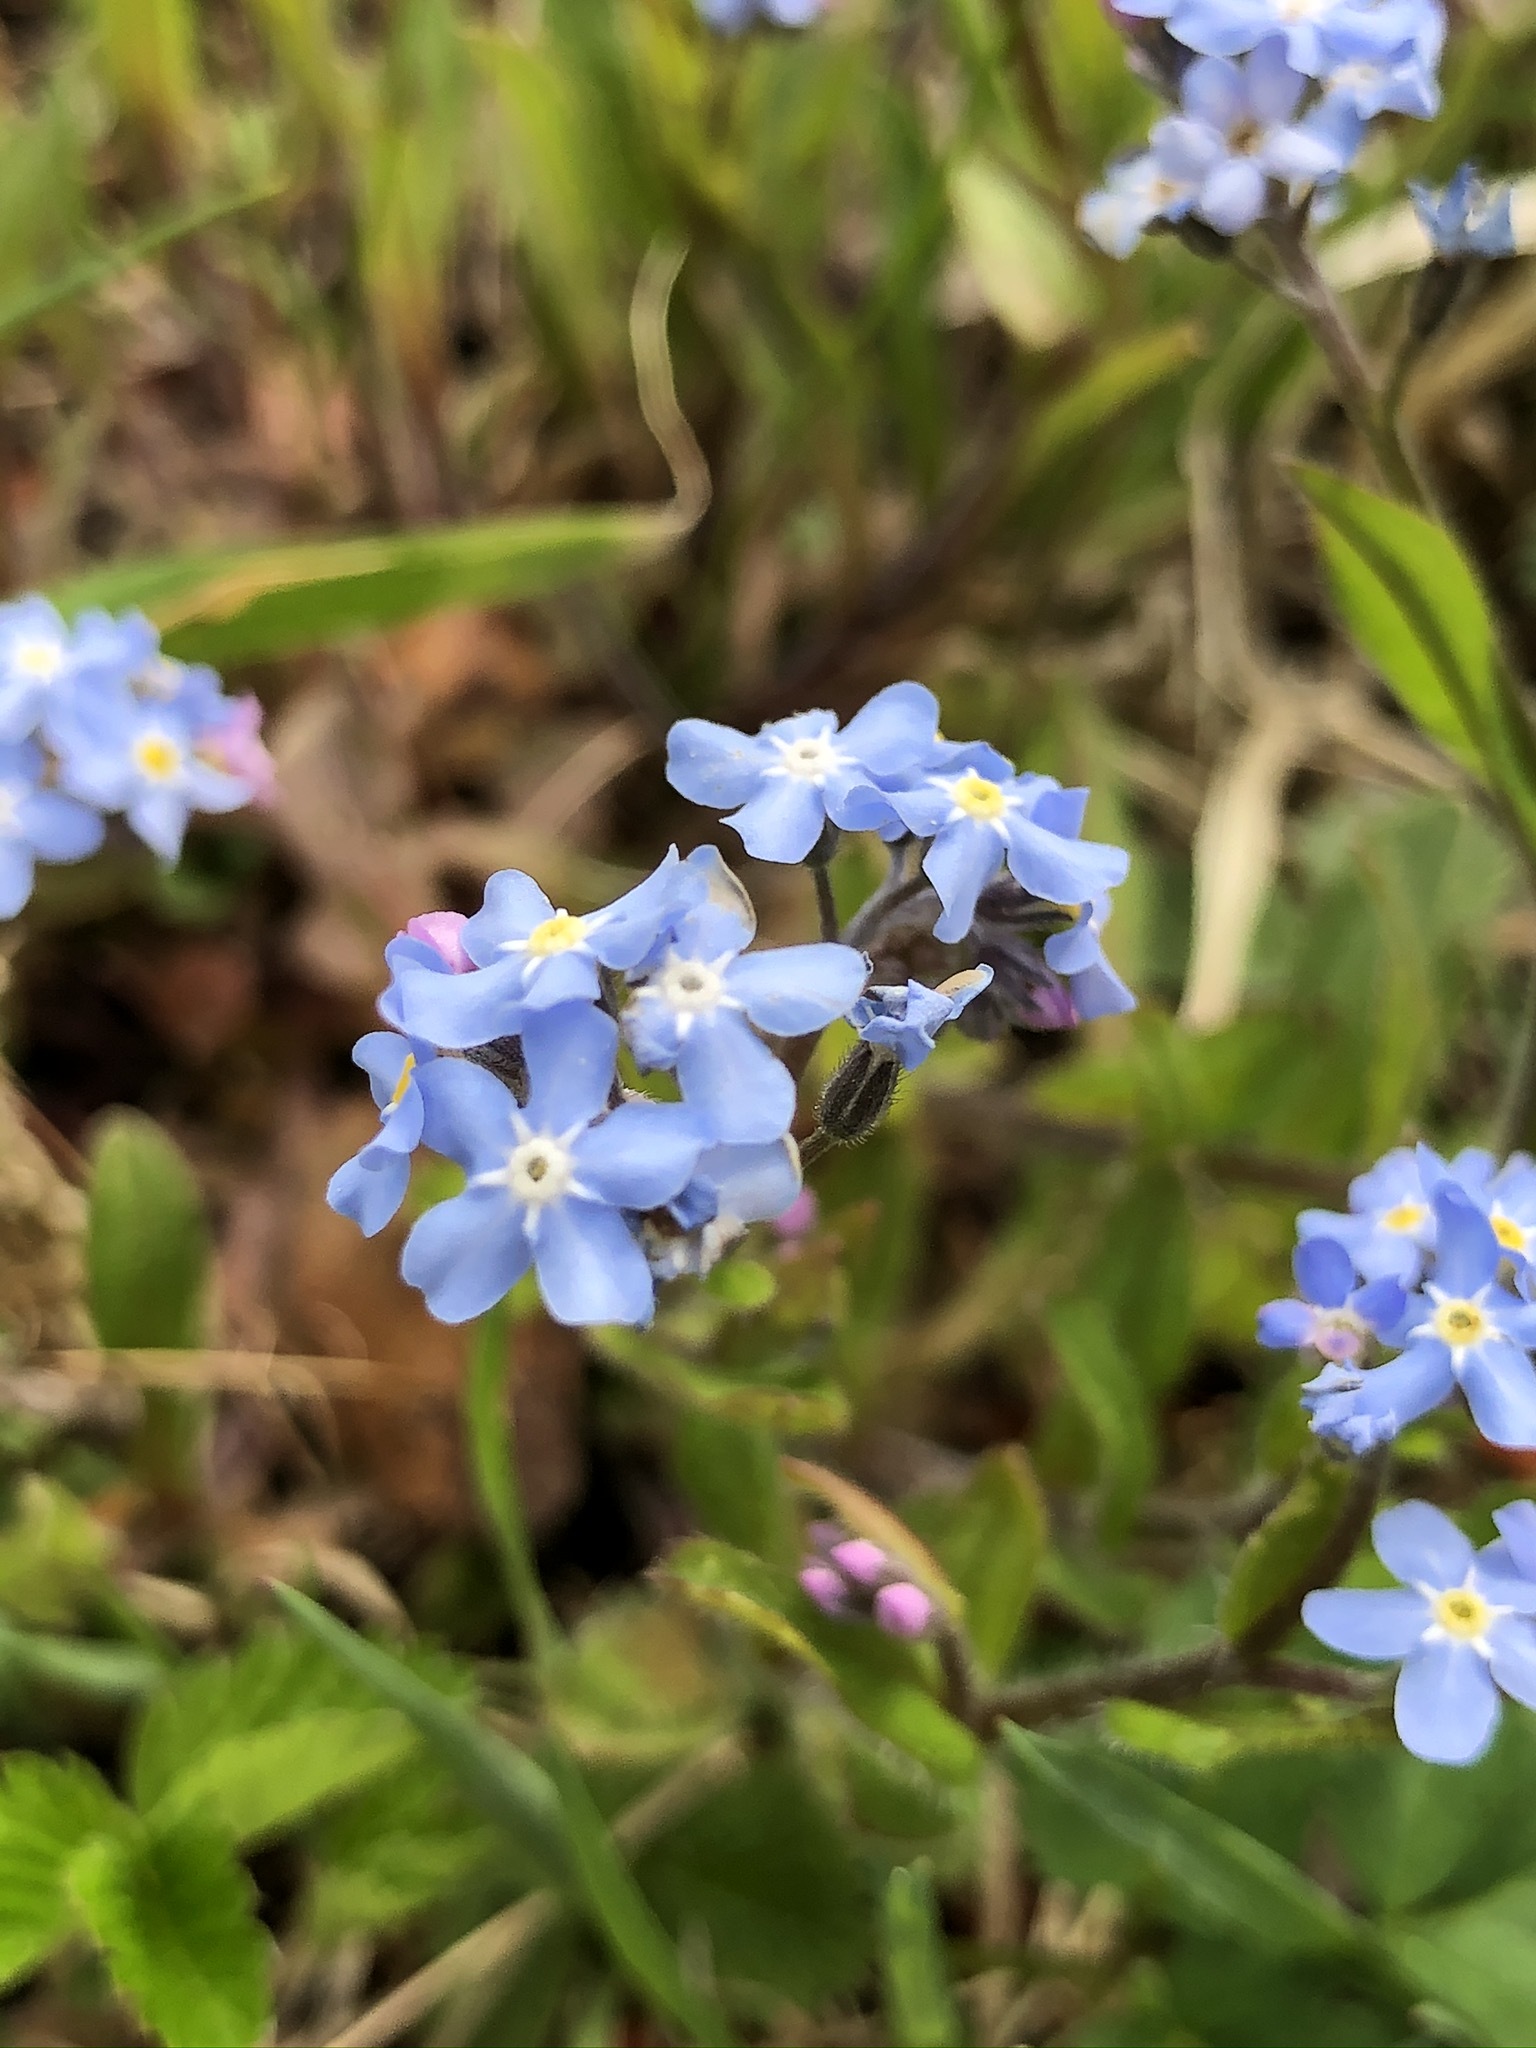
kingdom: Plantae
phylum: Tracheophyta
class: Magnoliopsida
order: Boraginales
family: Boraginaceae
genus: Myosotis
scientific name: Myosotis sylvatica
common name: Wood forget-me-not
